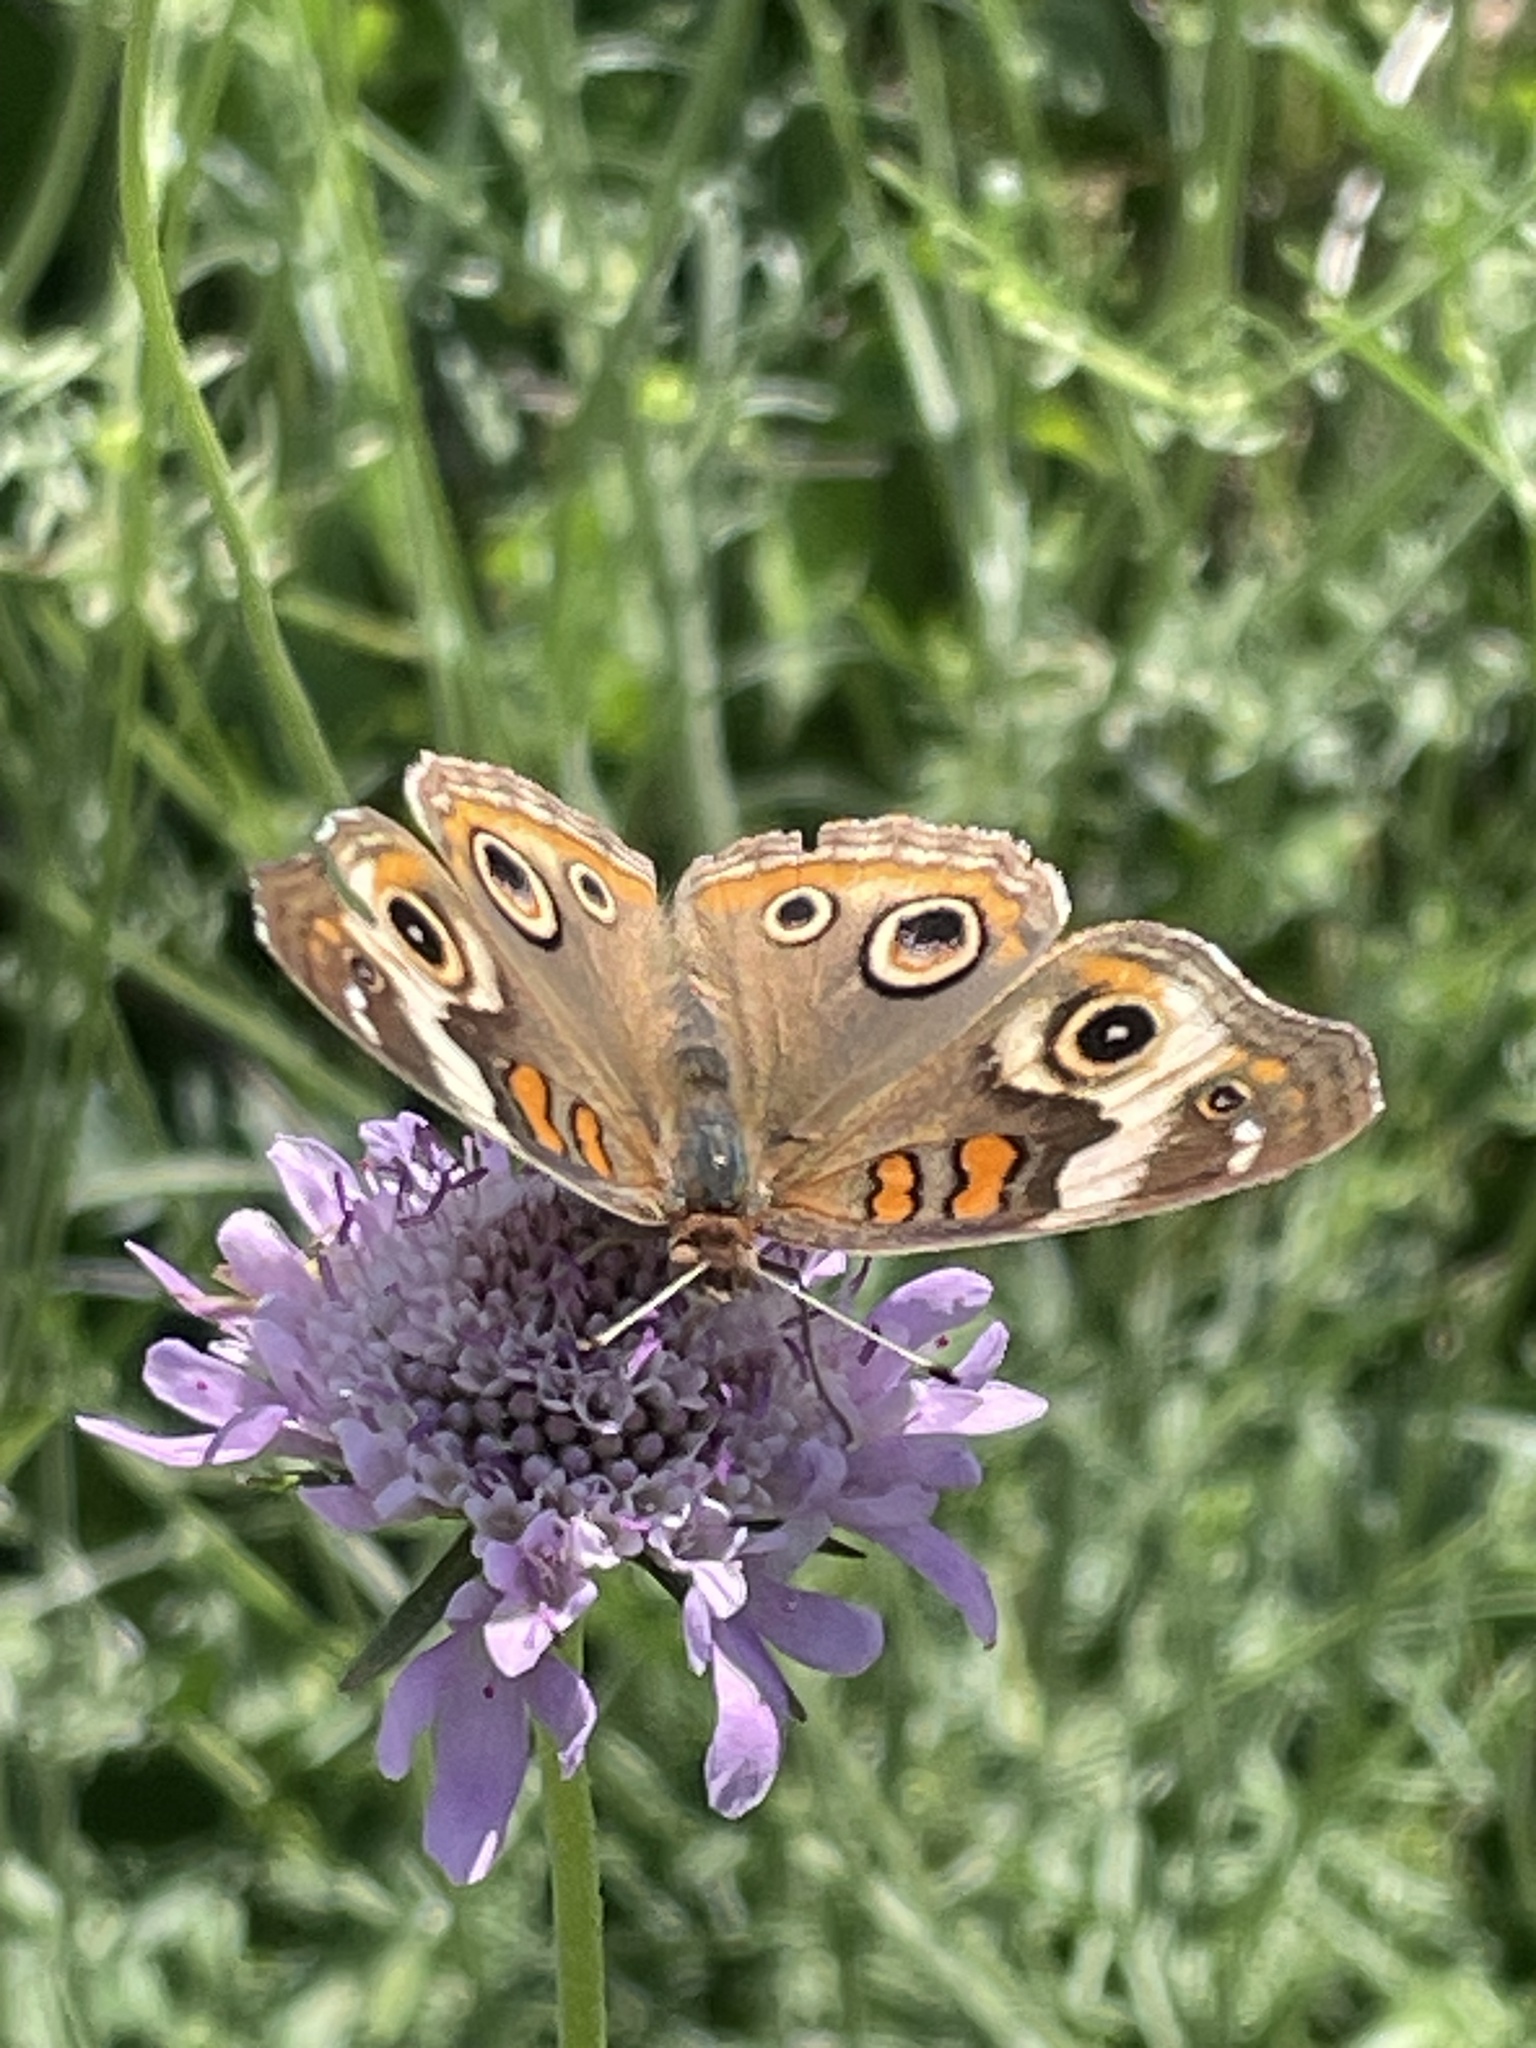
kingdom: Animalia
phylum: Arthropoda
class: Insecta
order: Lepidoptera
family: Nymphalidae
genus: Junonia
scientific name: Junonia coenia
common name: Common buckeye
